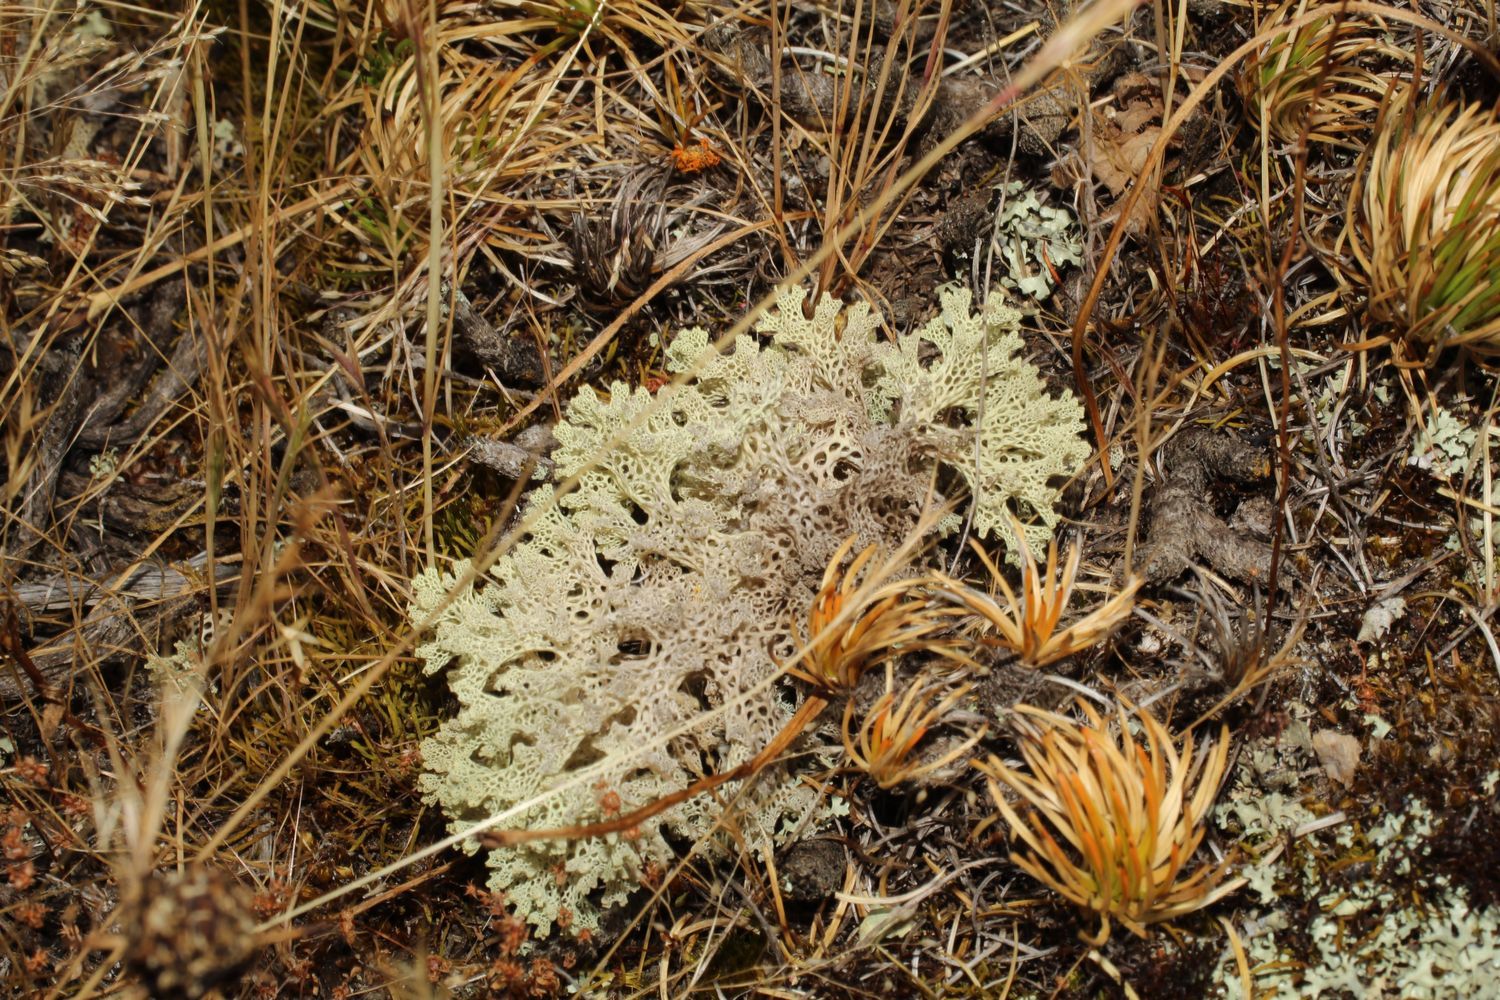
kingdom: Fungi
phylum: Ascomycota
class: Lecanoromycetes
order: Lecanorales
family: Cladoniaceae
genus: Pulchrocladia
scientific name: Pulchrocladia ferdinandii
